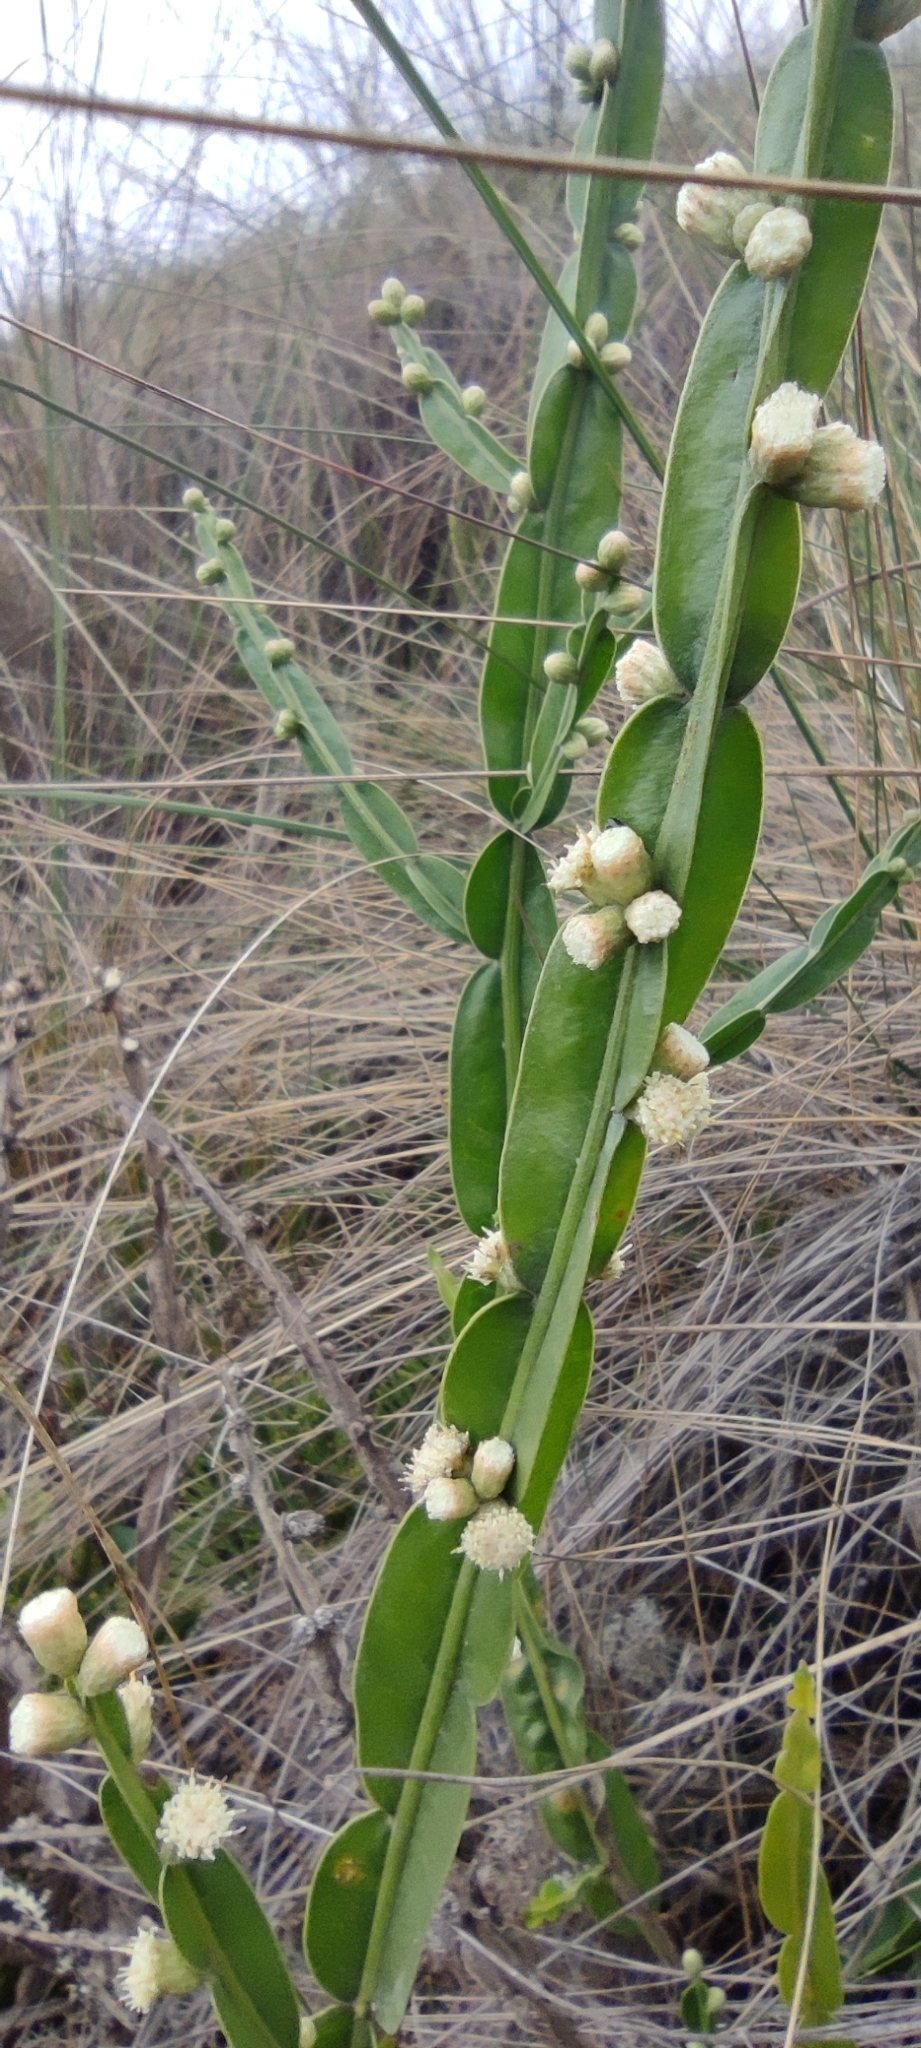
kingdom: Plantae
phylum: Tracheophyta
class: Magnoliopsida
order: Asterales
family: Asteraceae
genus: Baccharis
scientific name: Baccharis genistelloides
